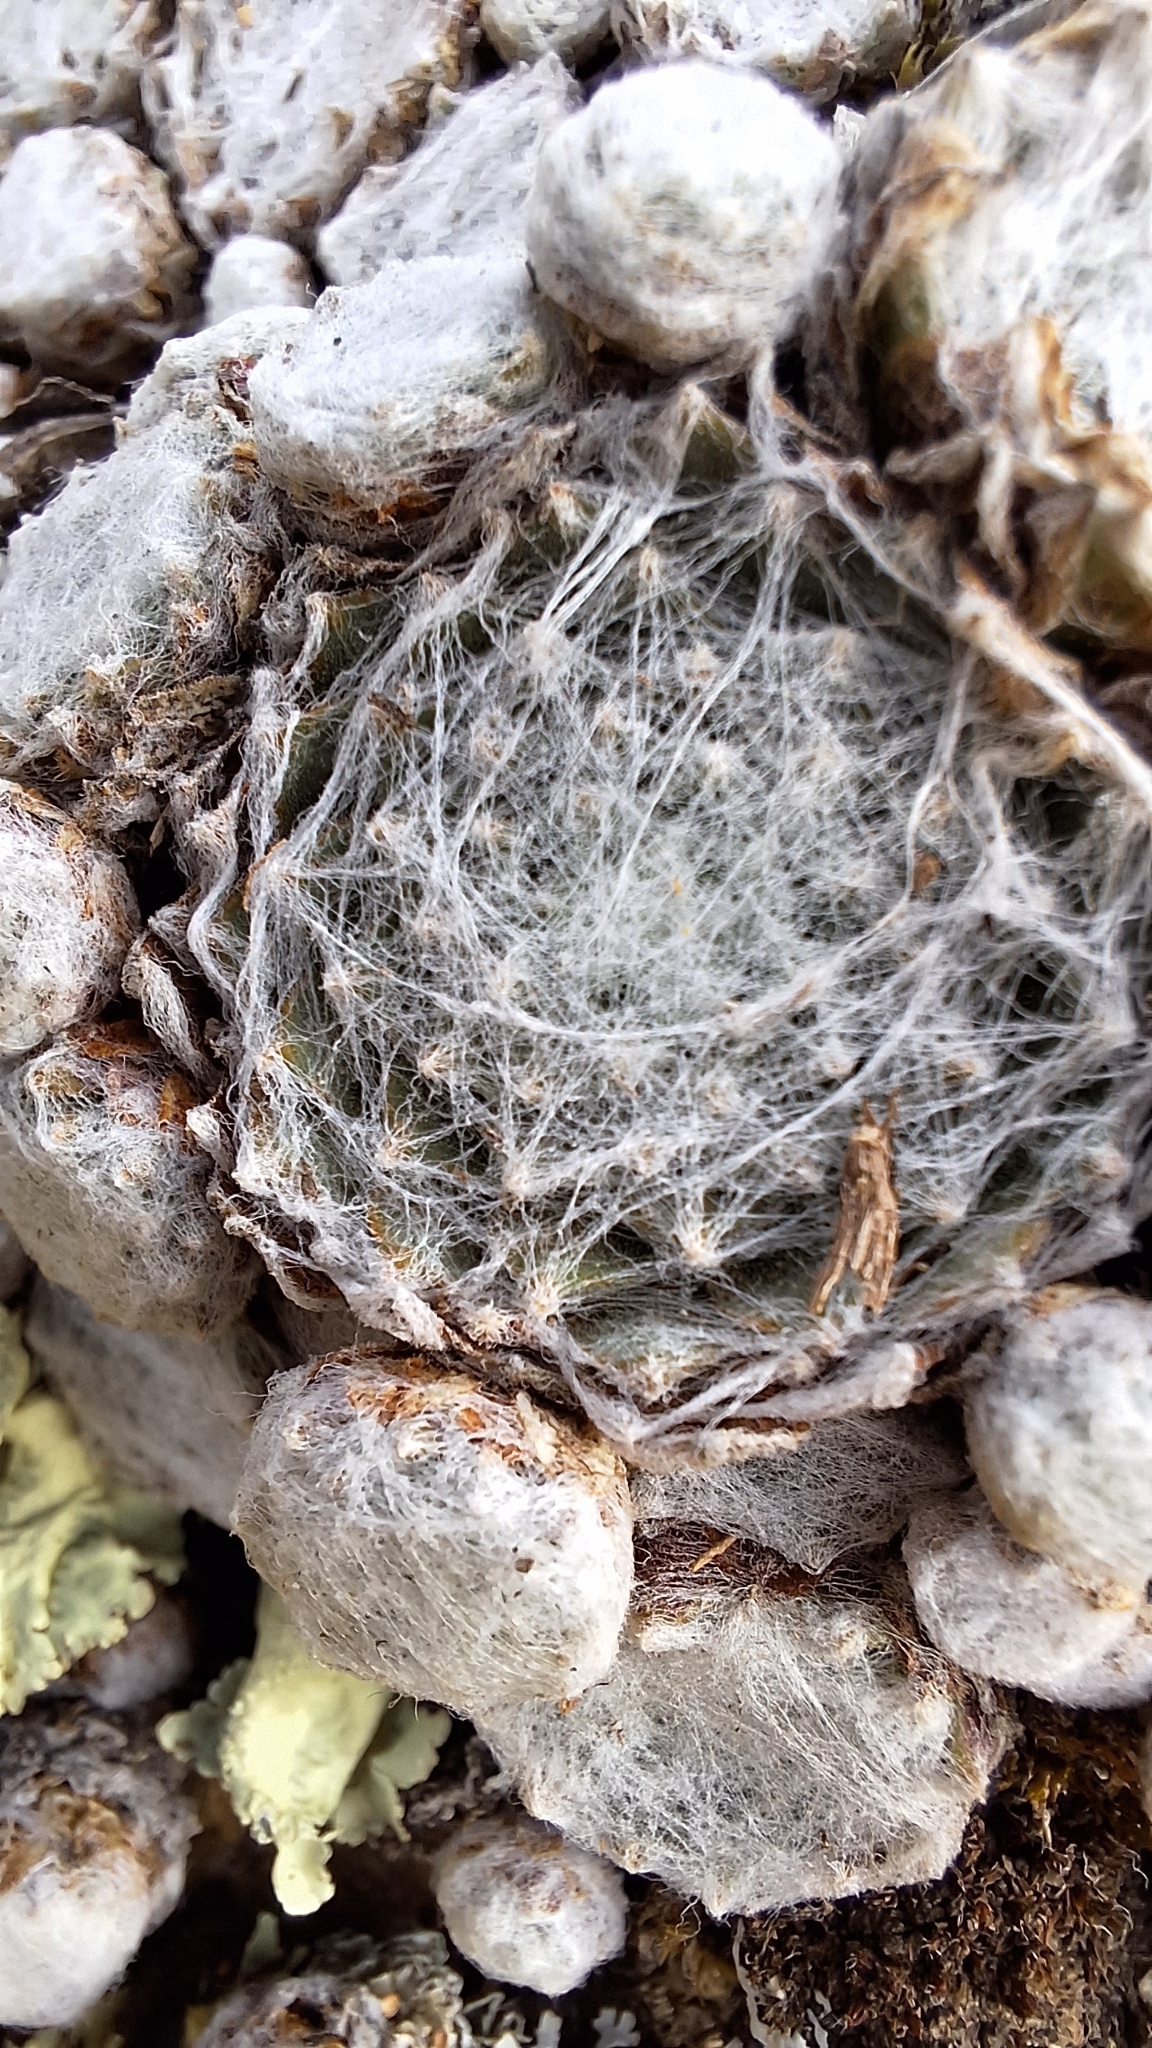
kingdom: Plantae
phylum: Tracheophyta
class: Magnoliopsida
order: Saxifragales
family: Crassulaceae
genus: Sempervivum
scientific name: Sempervivum arachnoideum
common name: Cobweb house-leek
